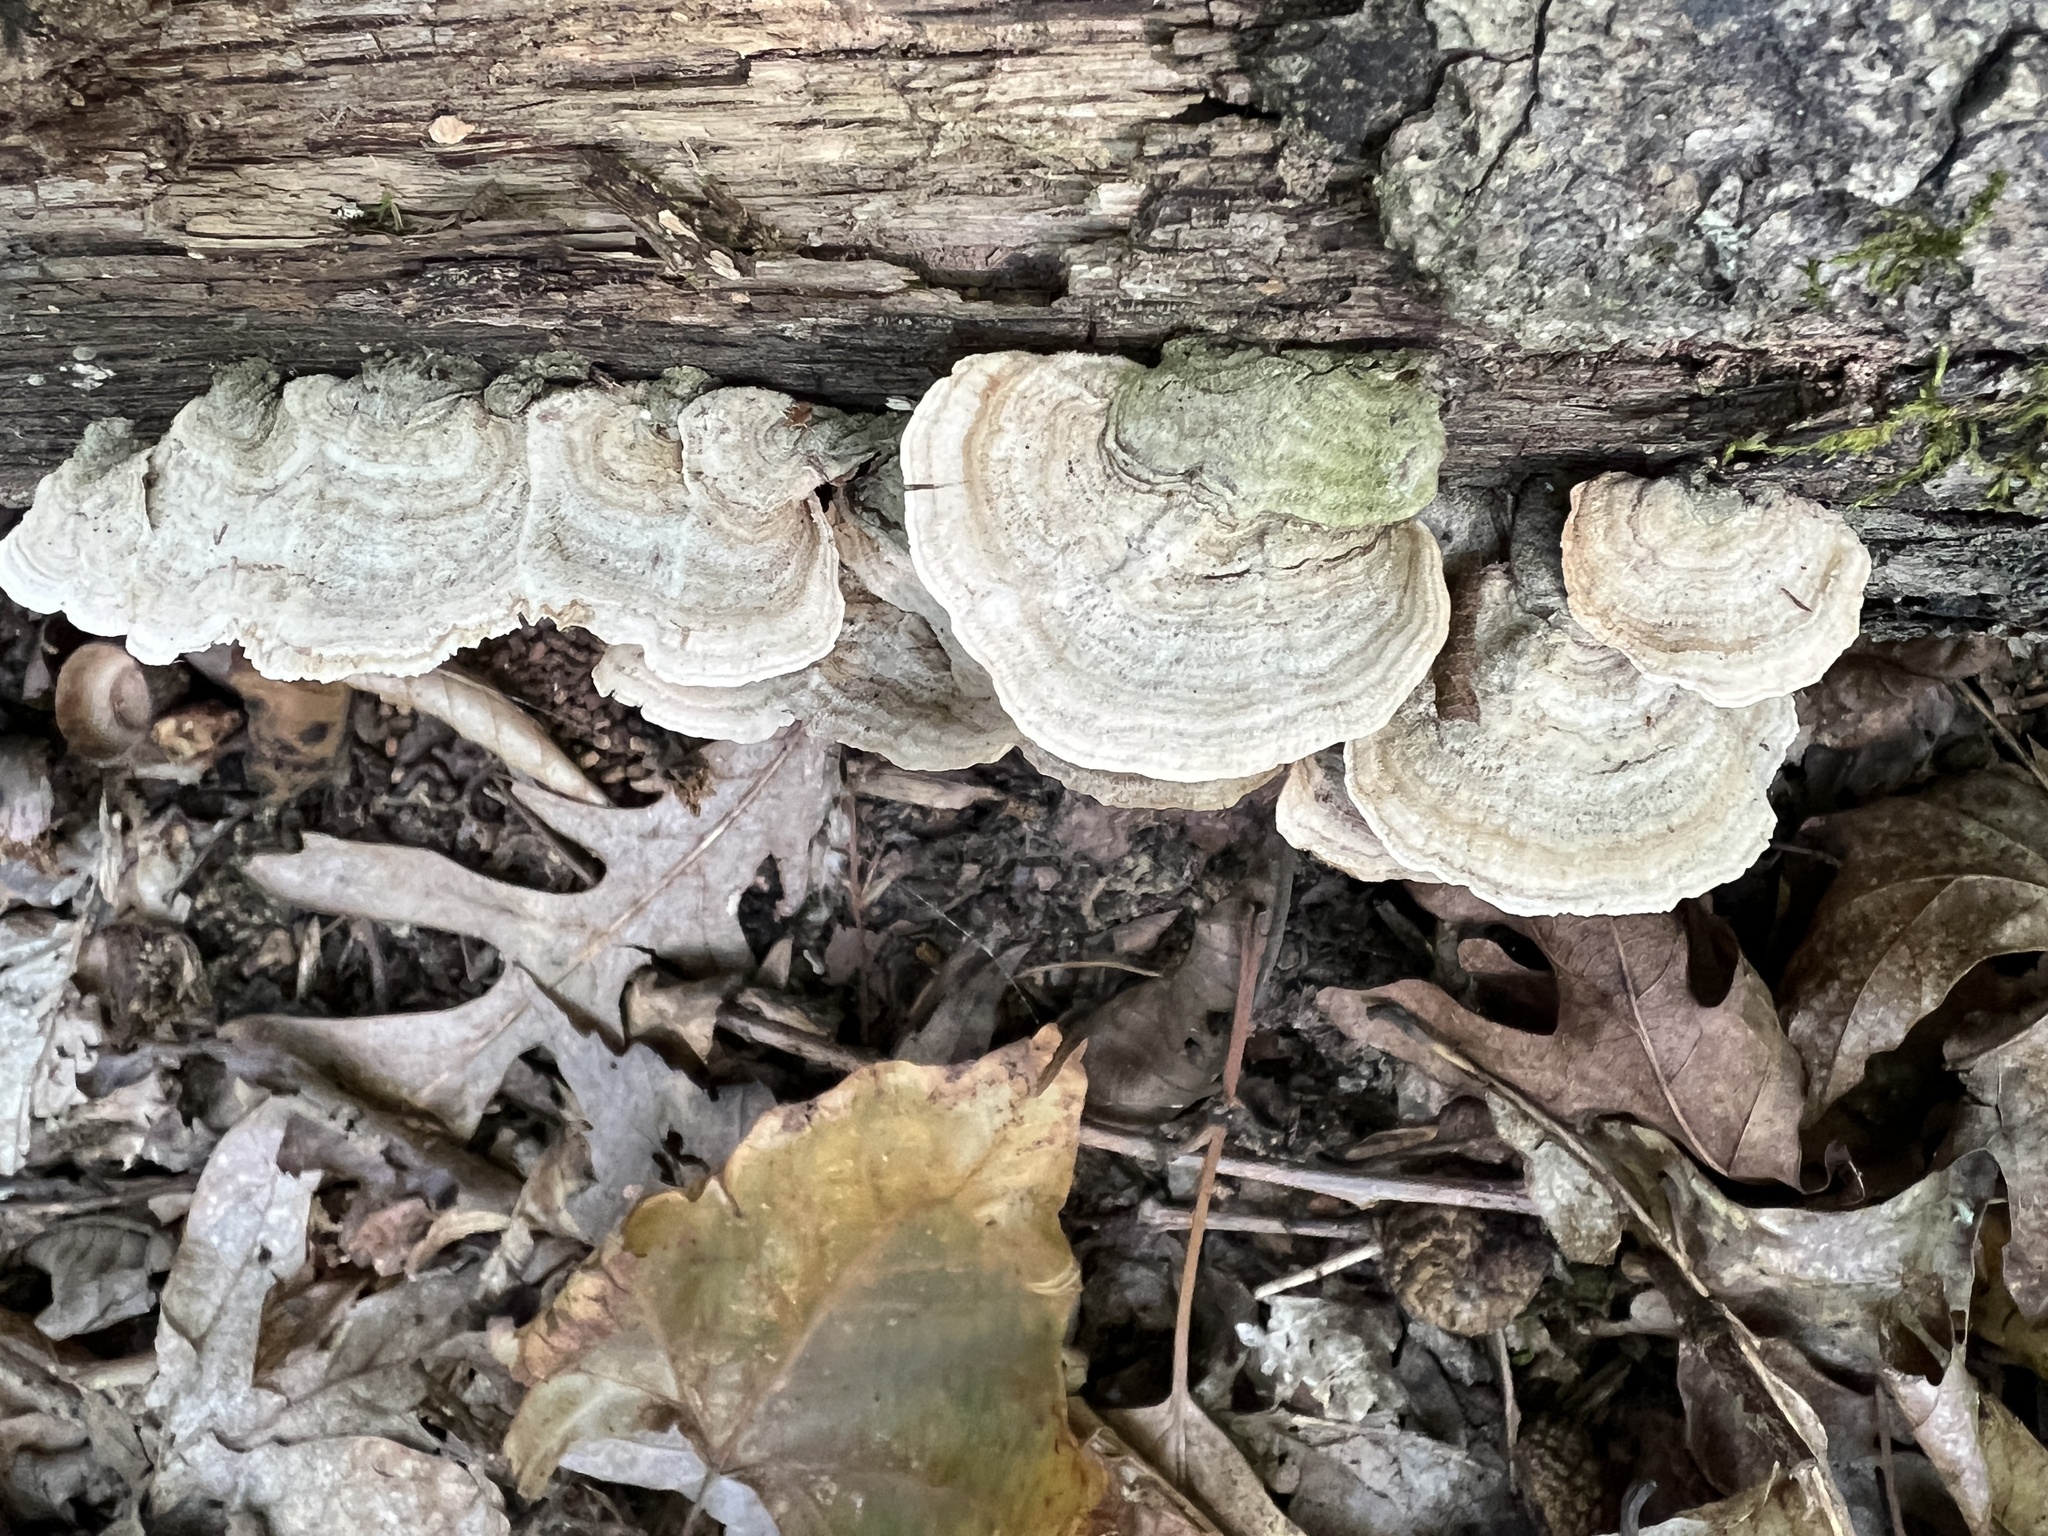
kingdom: Fungi
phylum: Basidiomycota
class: Agaricomycetes
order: Russulales
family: Stereaceae
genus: Stereum
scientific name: Stereum ostrea
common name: False turkeytail
